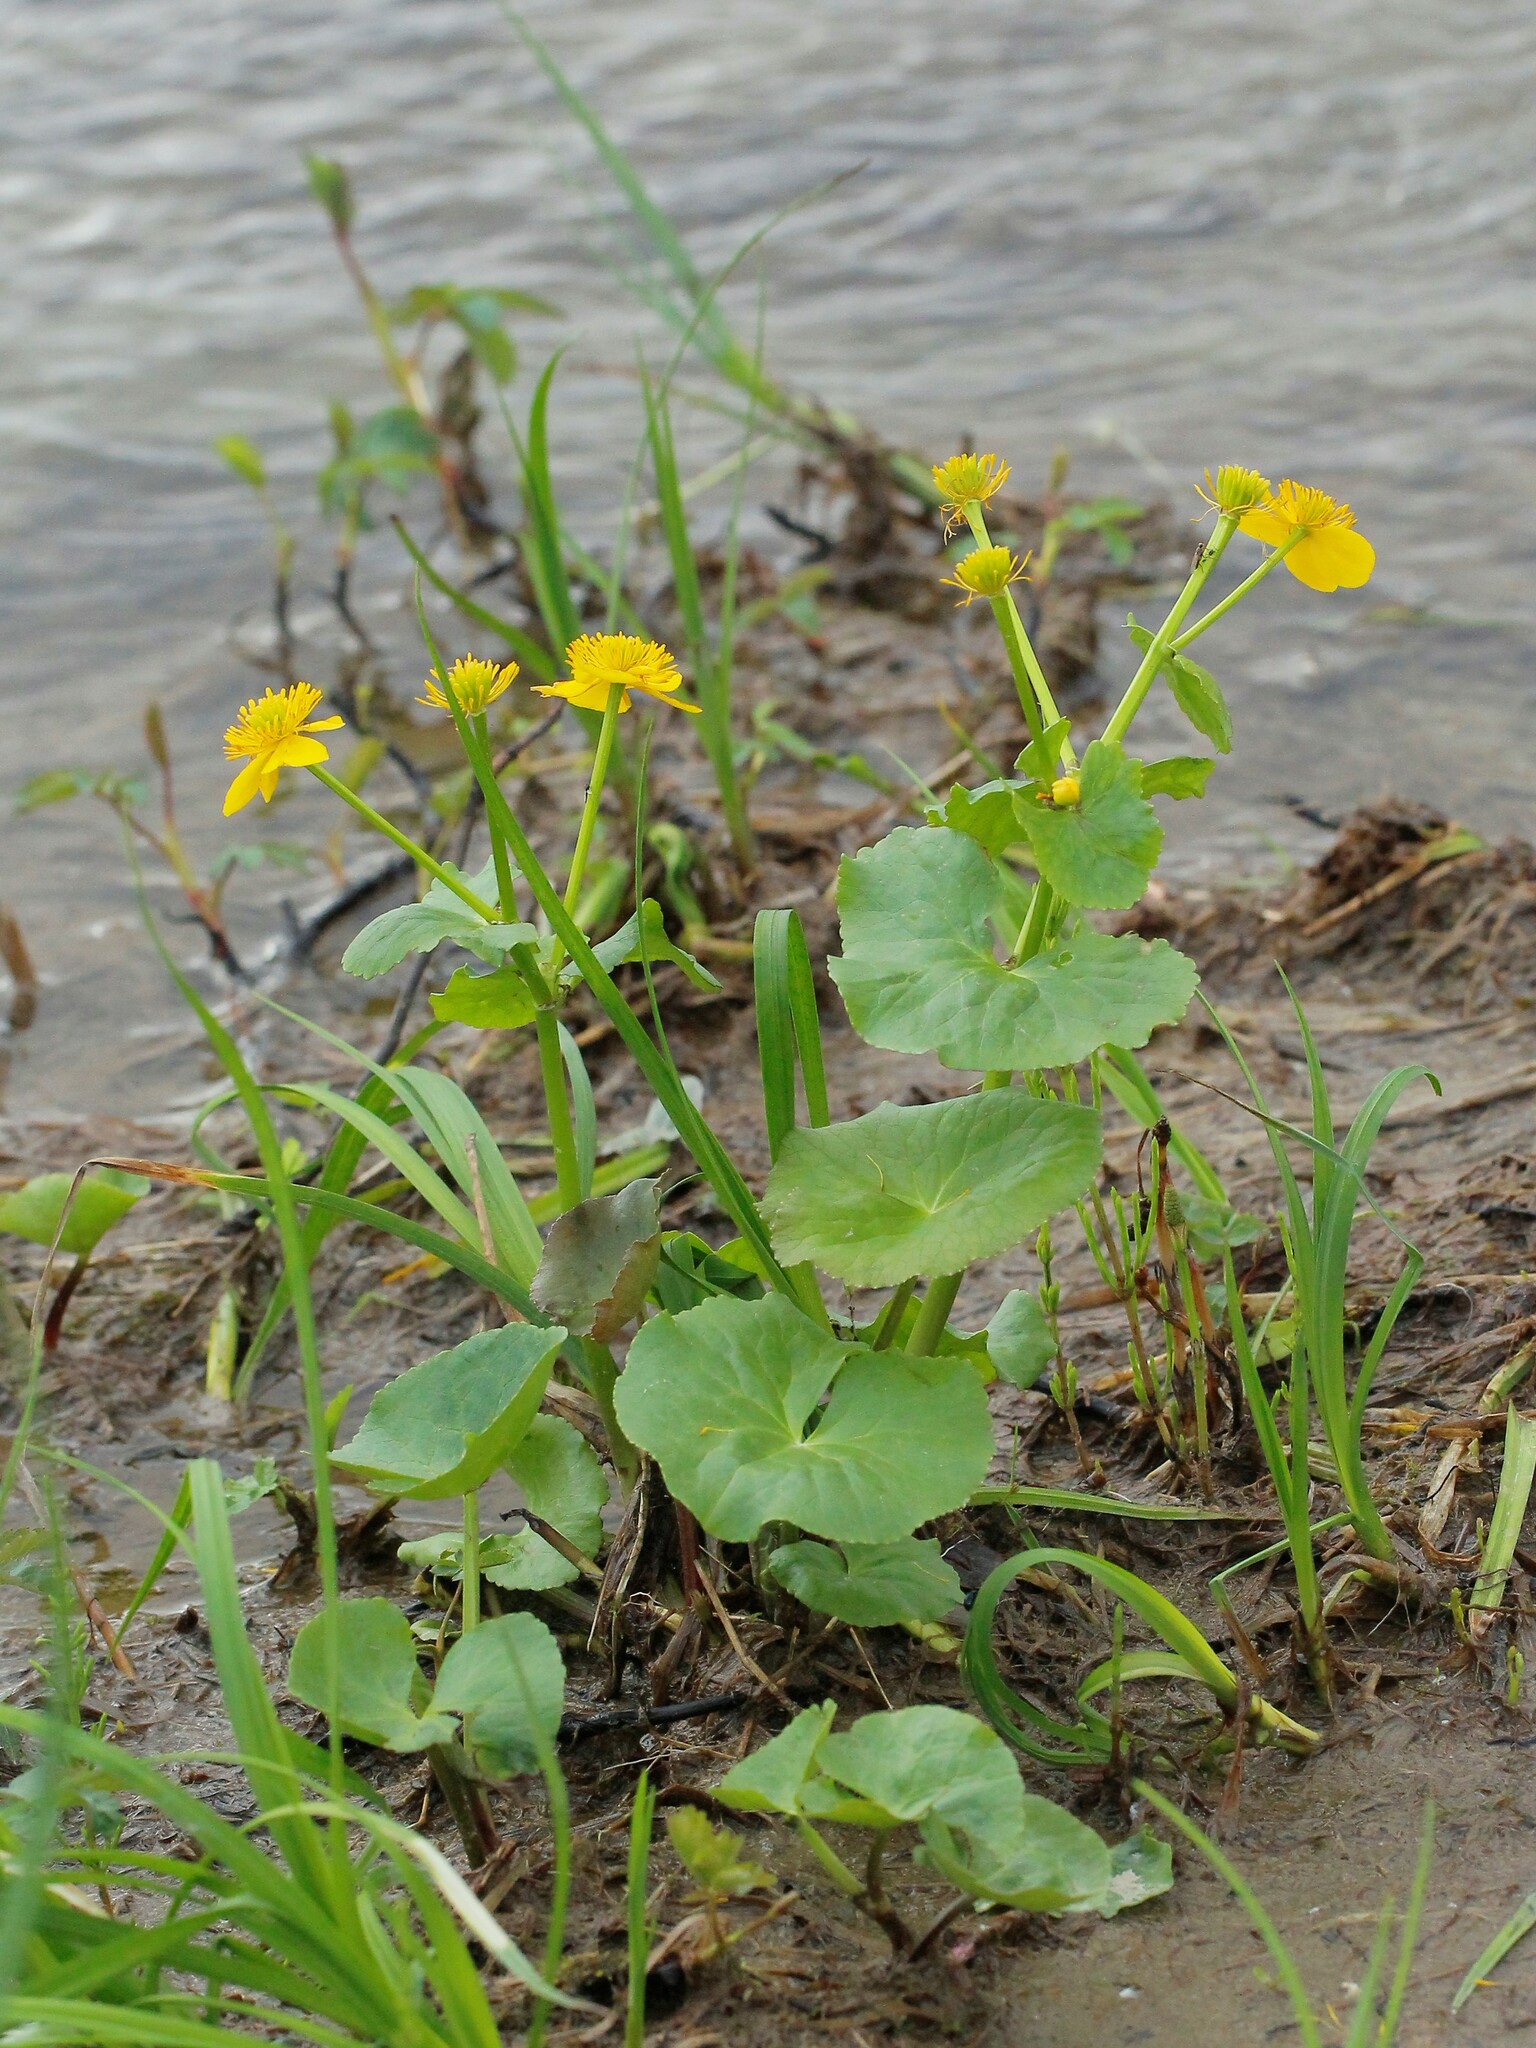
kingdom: Plantae
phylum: Tracheophyta
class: Magnoliopsida
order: Ranunculales
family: Ranunculaceae
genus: Caltha
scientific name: Caltha palustris
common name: Marsh marigold
